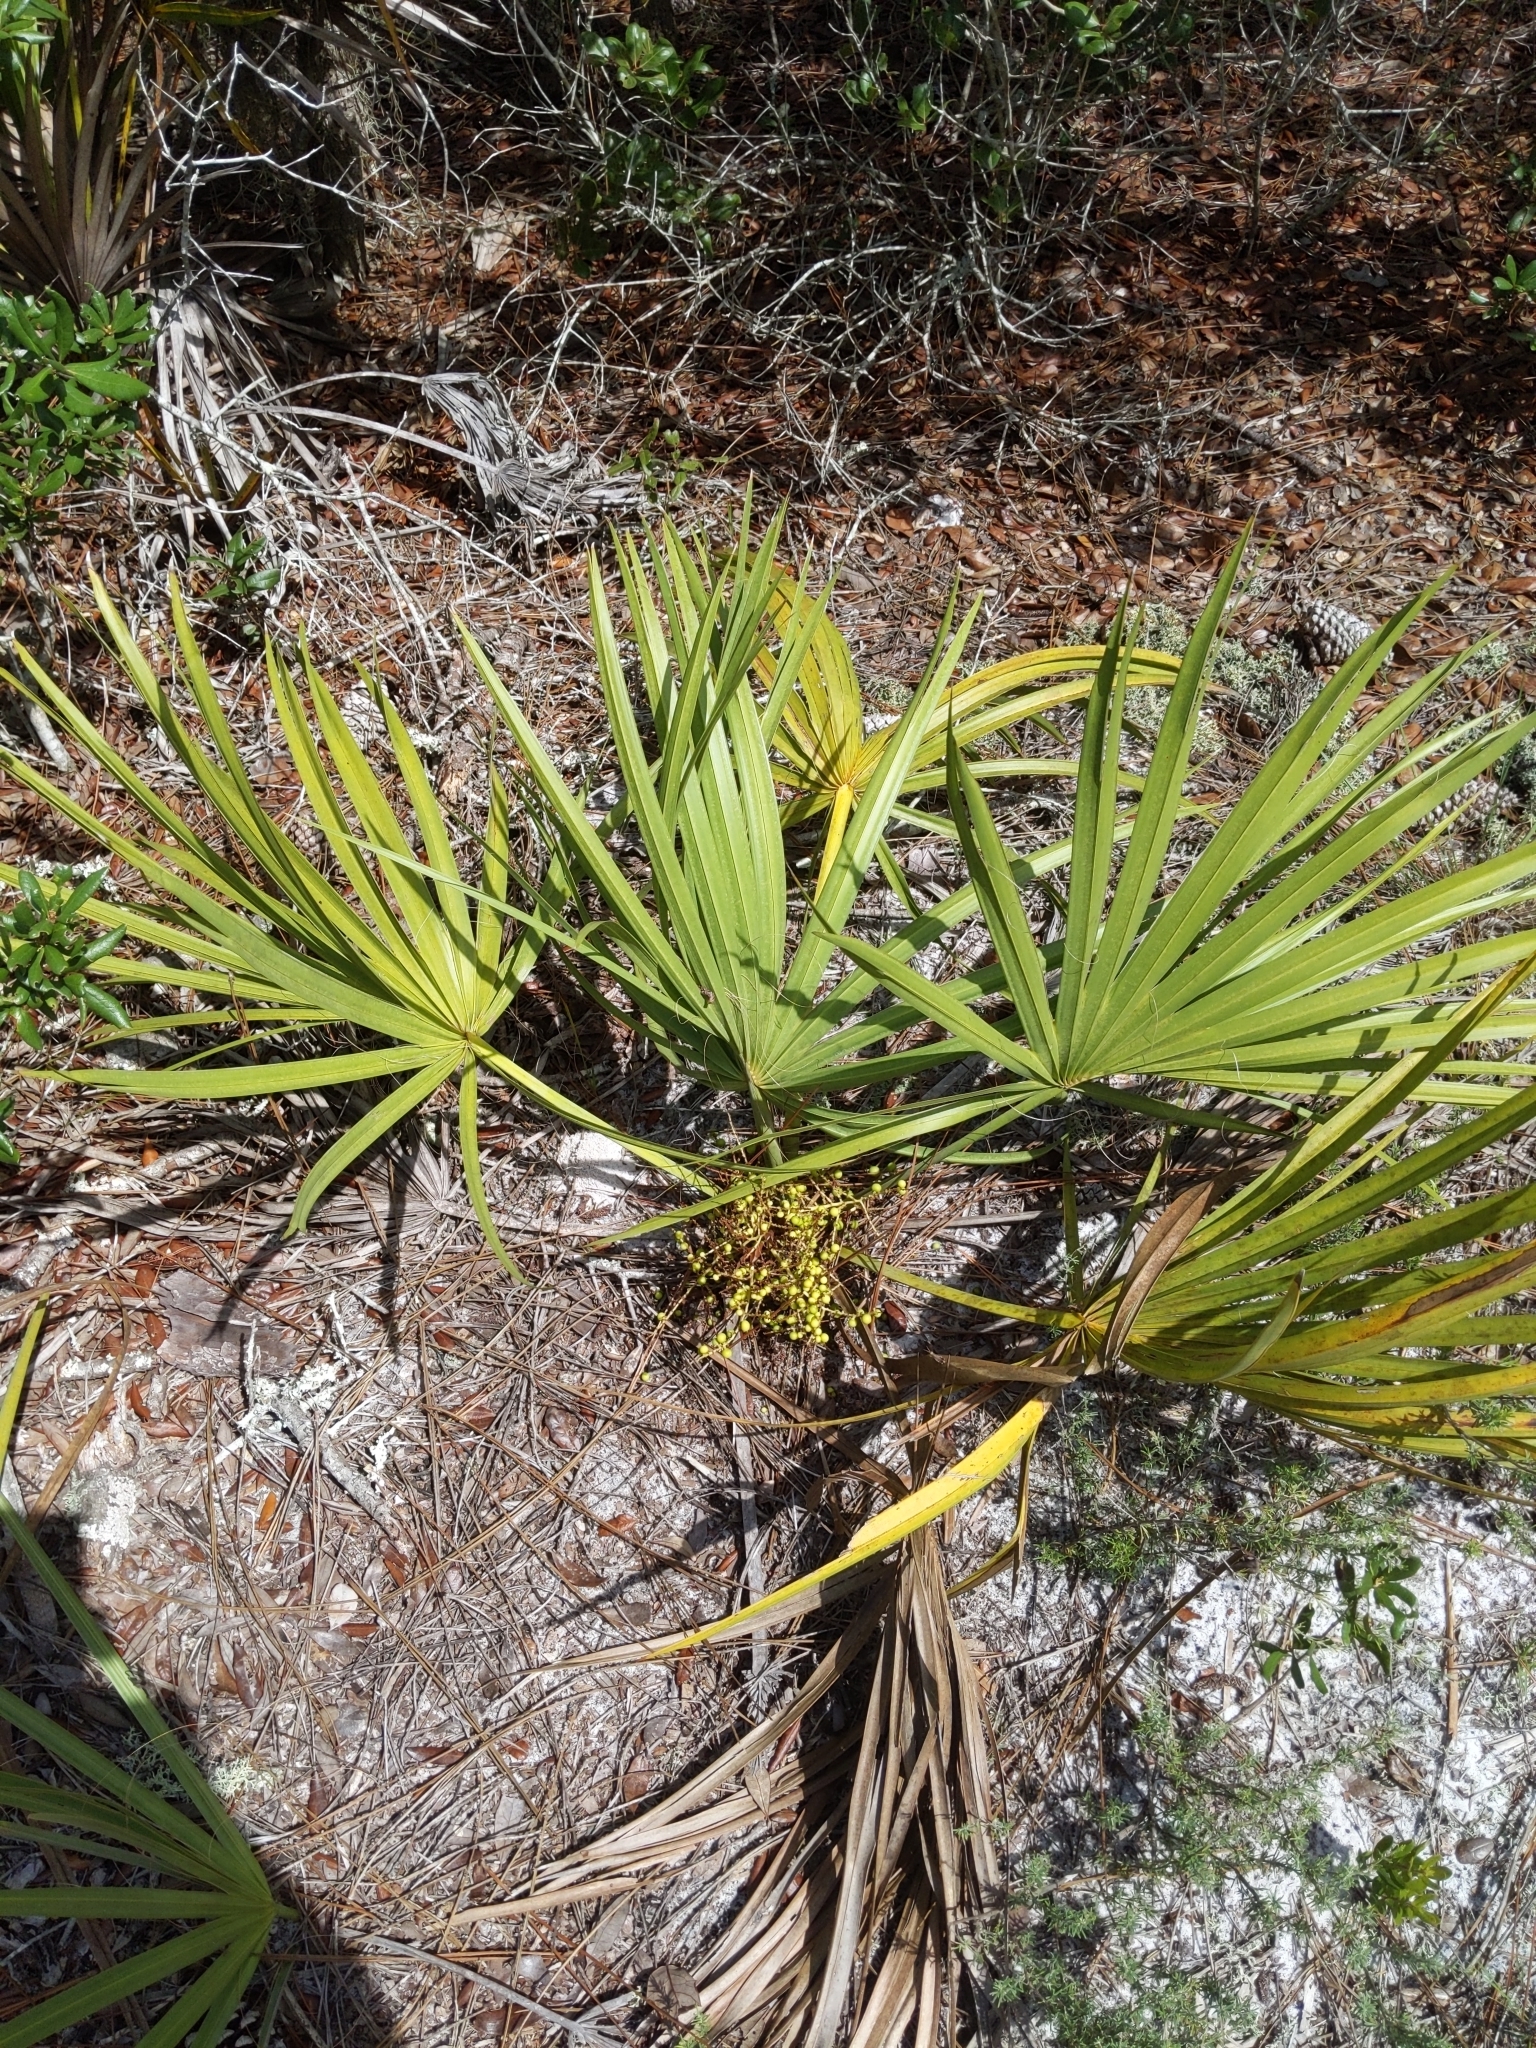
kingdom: Plantae
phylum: Tracheophyta
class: Liliopsida
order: Arecales
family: Arecaceae
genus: Sabal
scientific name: Sabal etonia
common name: Dwarf palmetto
